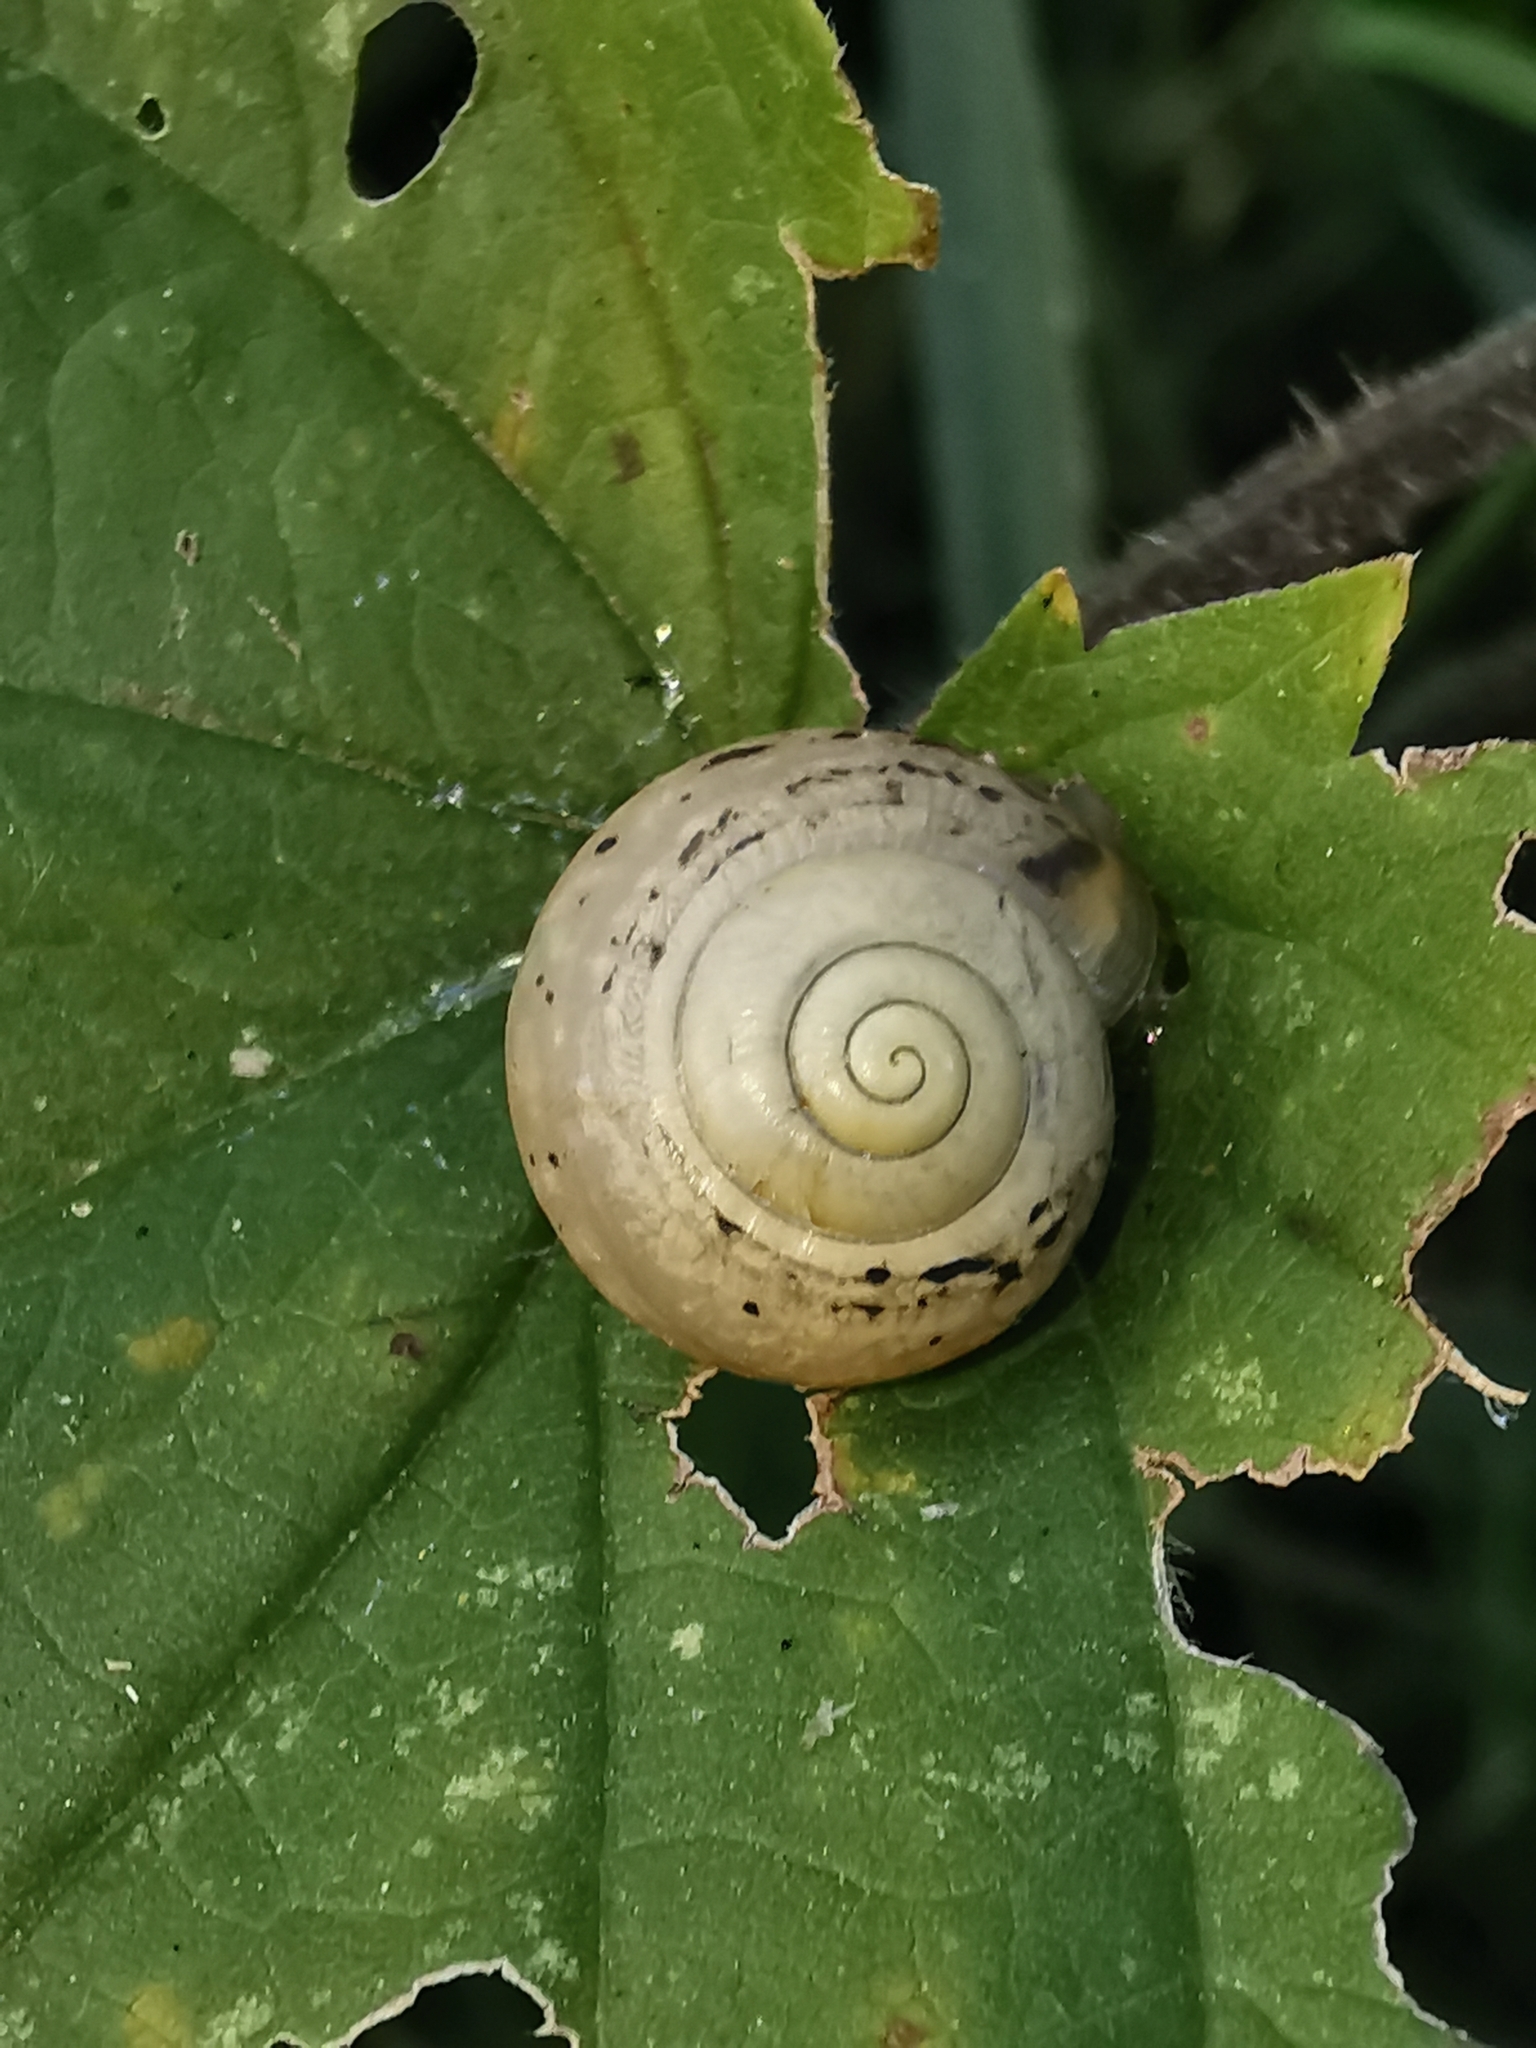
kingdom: Animalia
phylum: Mollusca
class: Gastropoda
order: Stylommatophora
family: Camaenidae
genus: Fruticicola
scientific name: Fruticicola fruticum
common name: Bush snail
